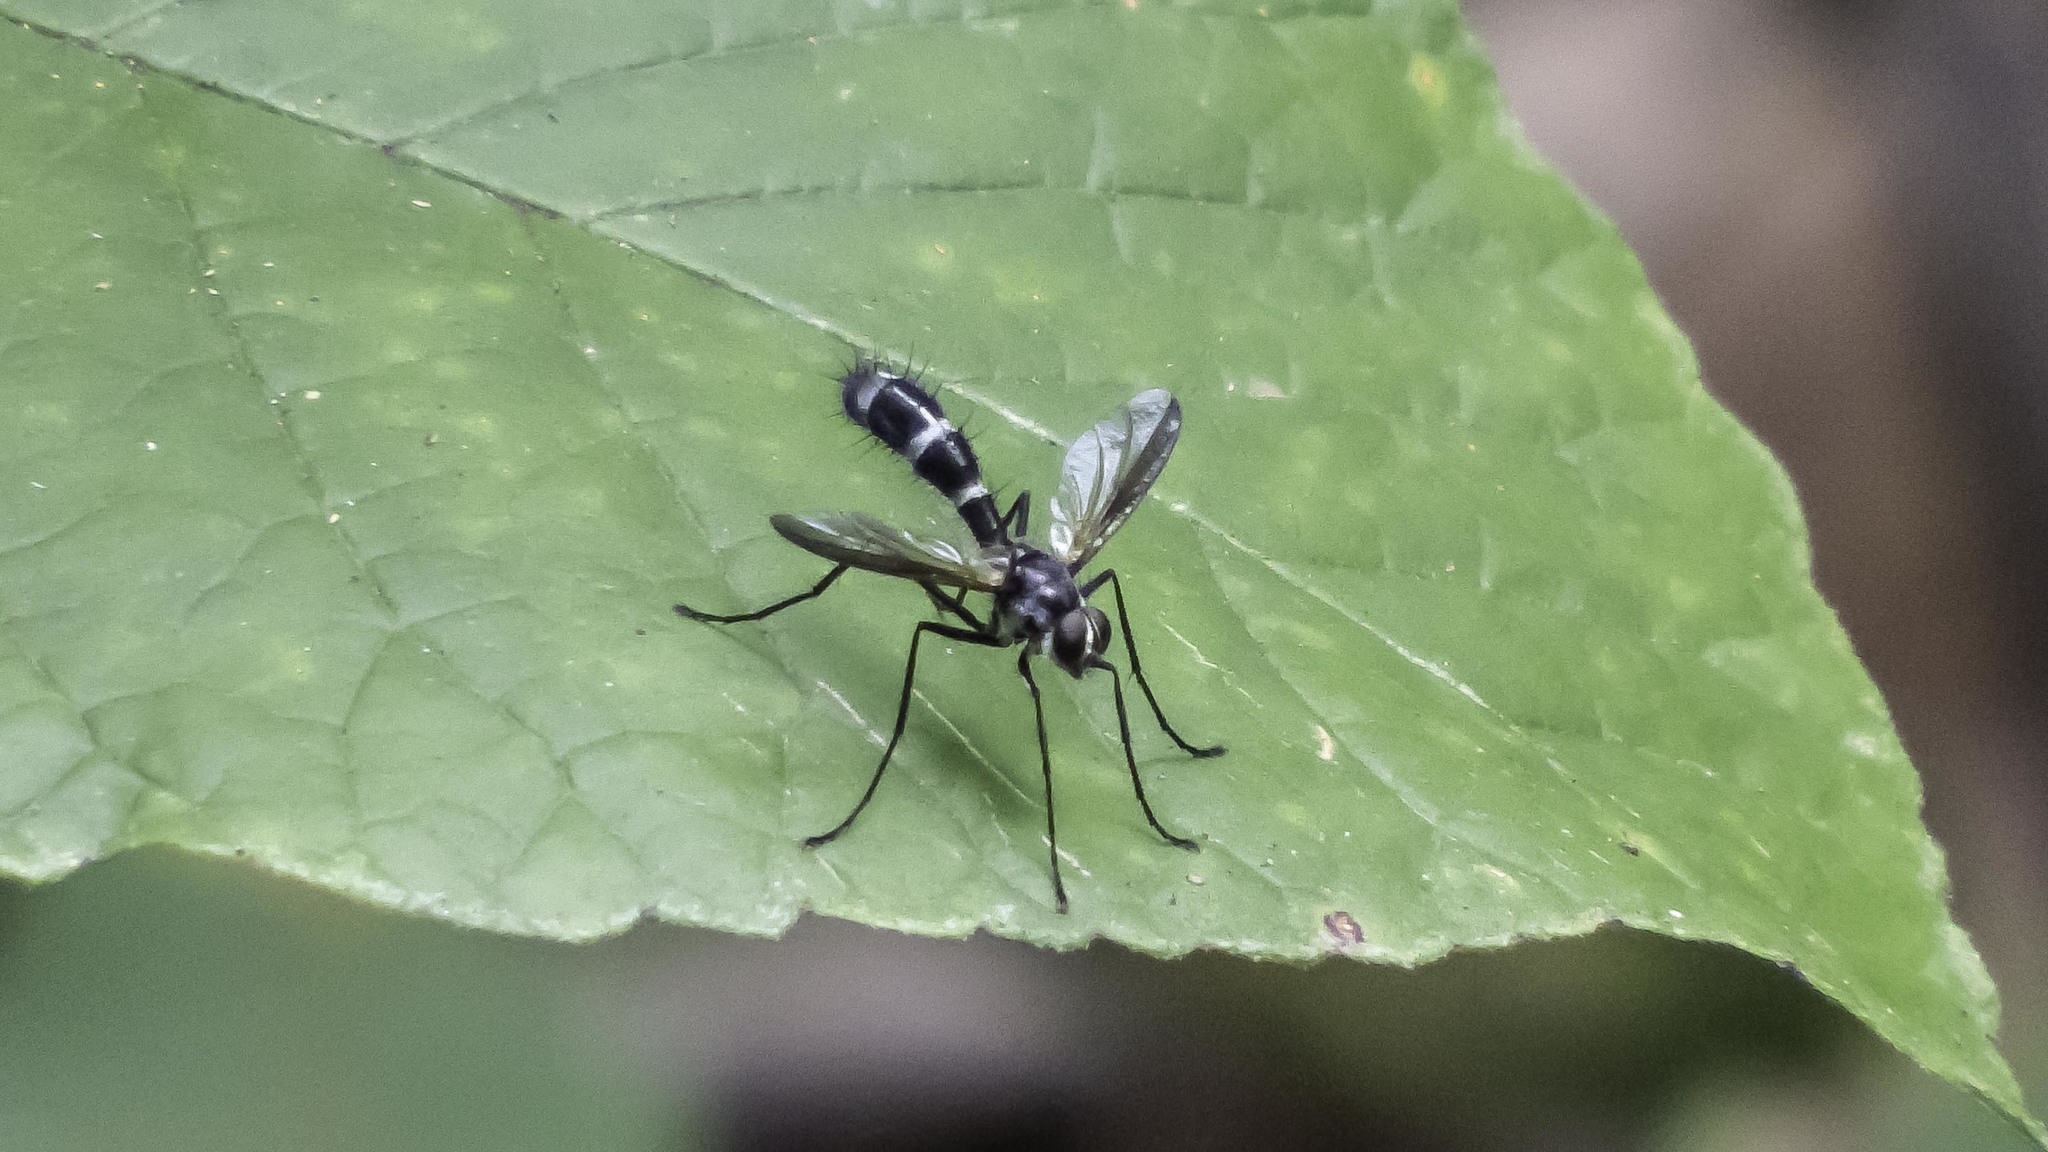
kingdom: Animalia
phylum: Arthropoda
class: Insecta
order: Diptera
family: Tachinidae
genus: Cordyligaster
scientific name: Cordyligaster septentrionalis
